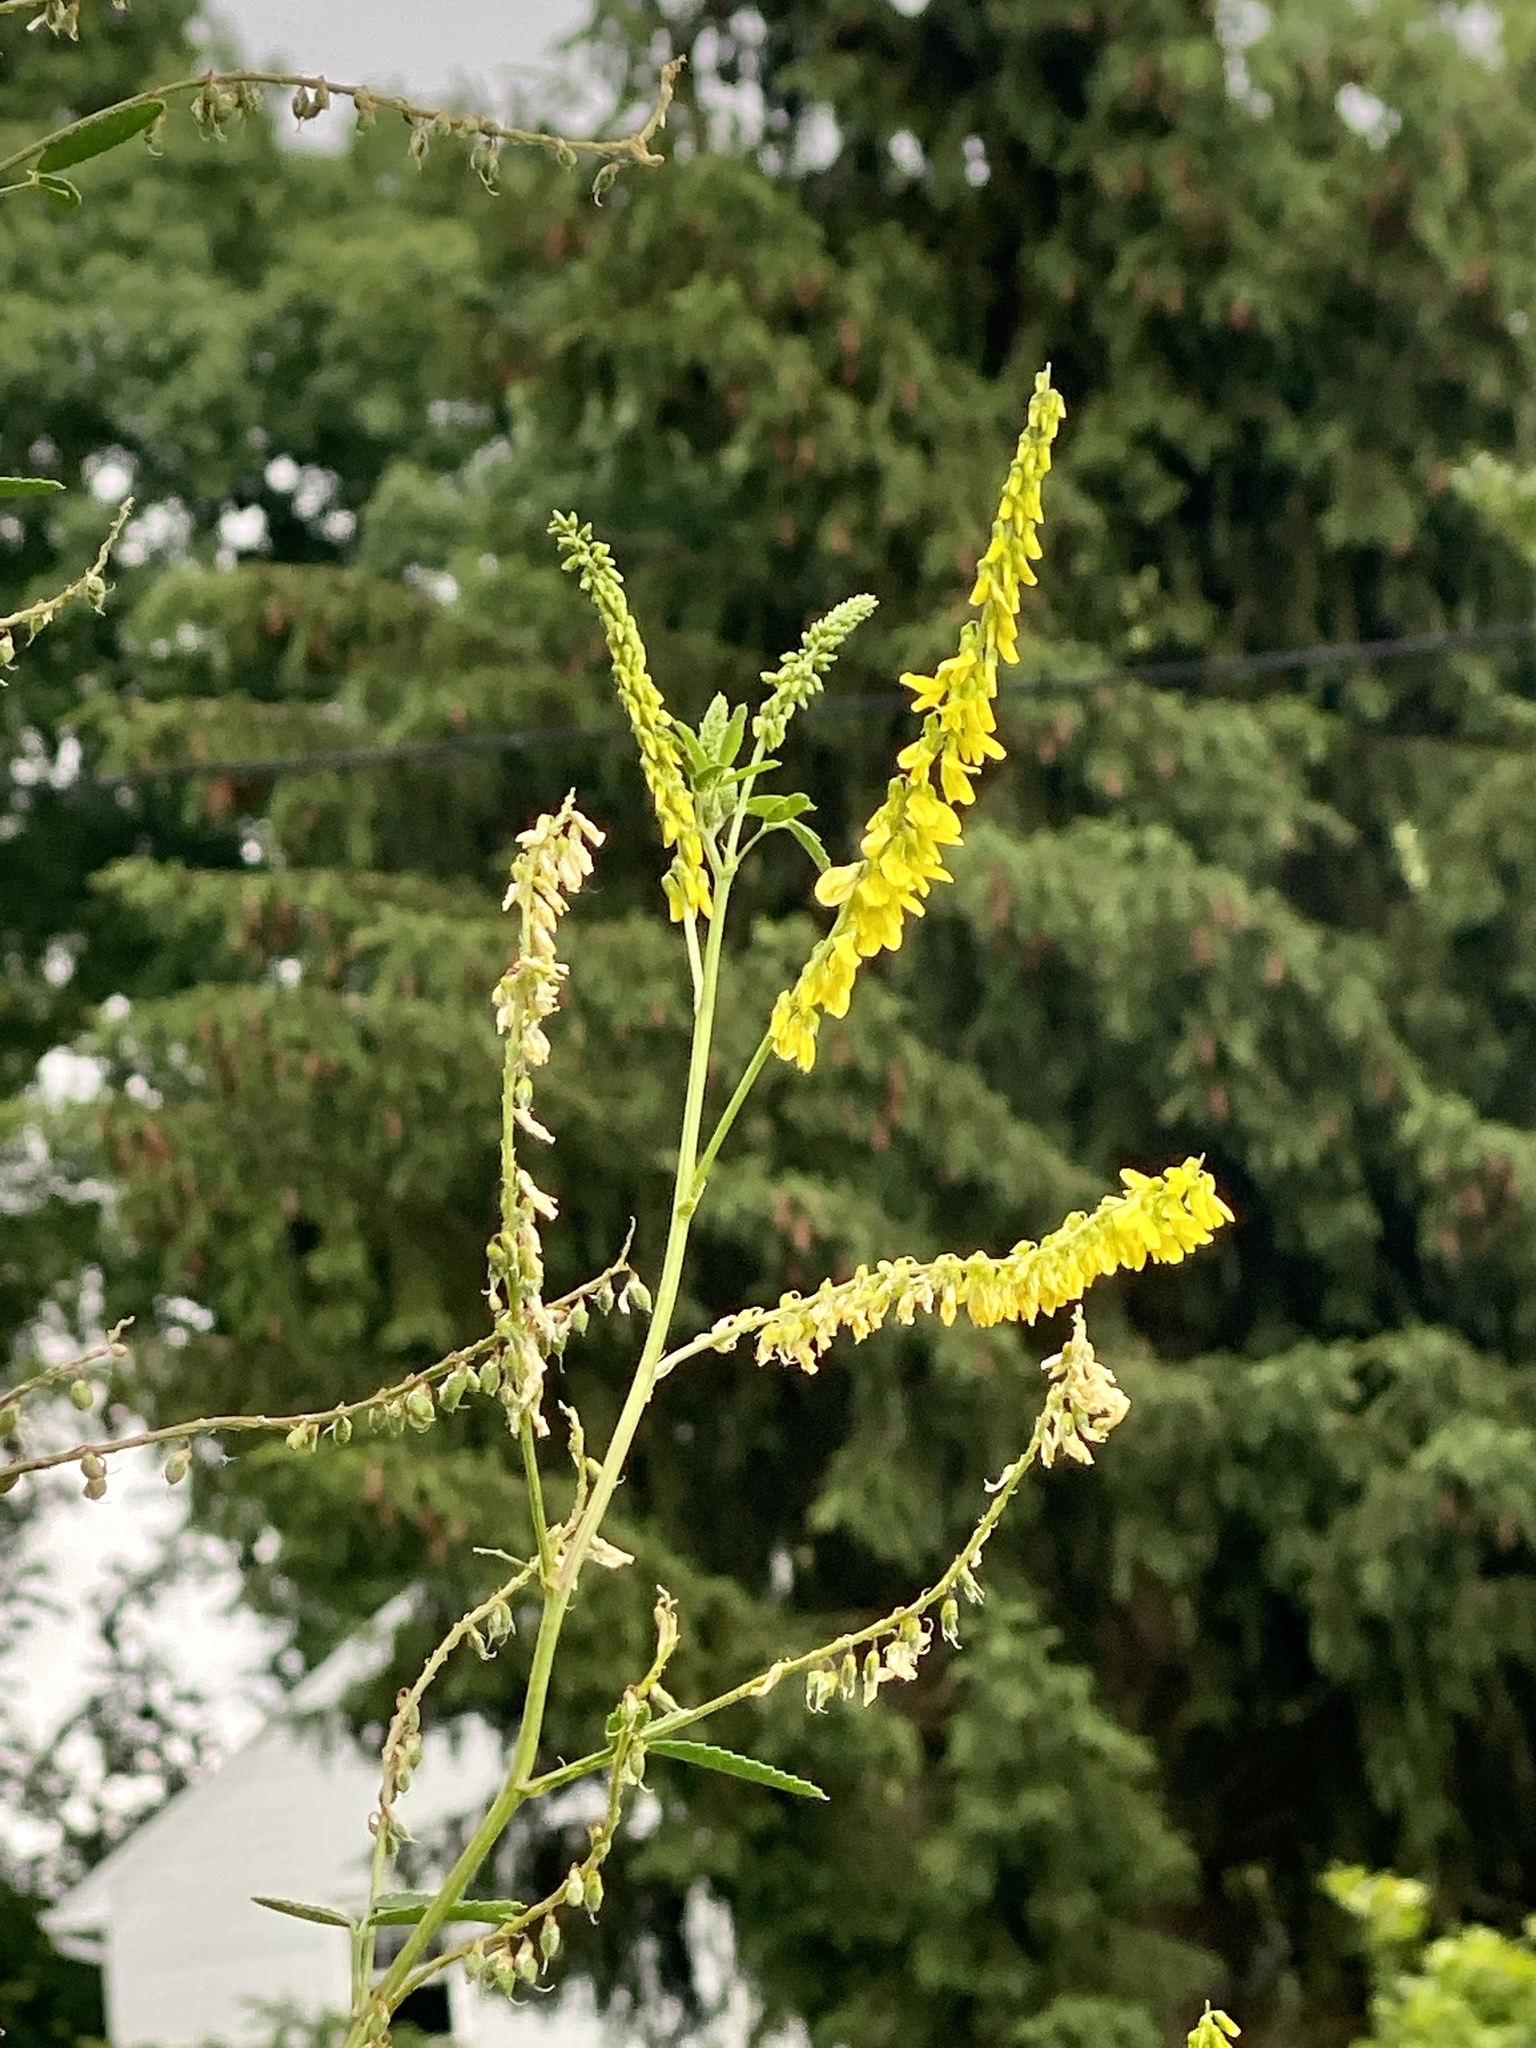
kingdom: Plantae
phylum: Tracheophyta
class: Magnoliopsida
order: Fabales
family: Fabaceae
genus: Melilotus
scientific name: Melilotus officinalis
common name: Sweetclover
